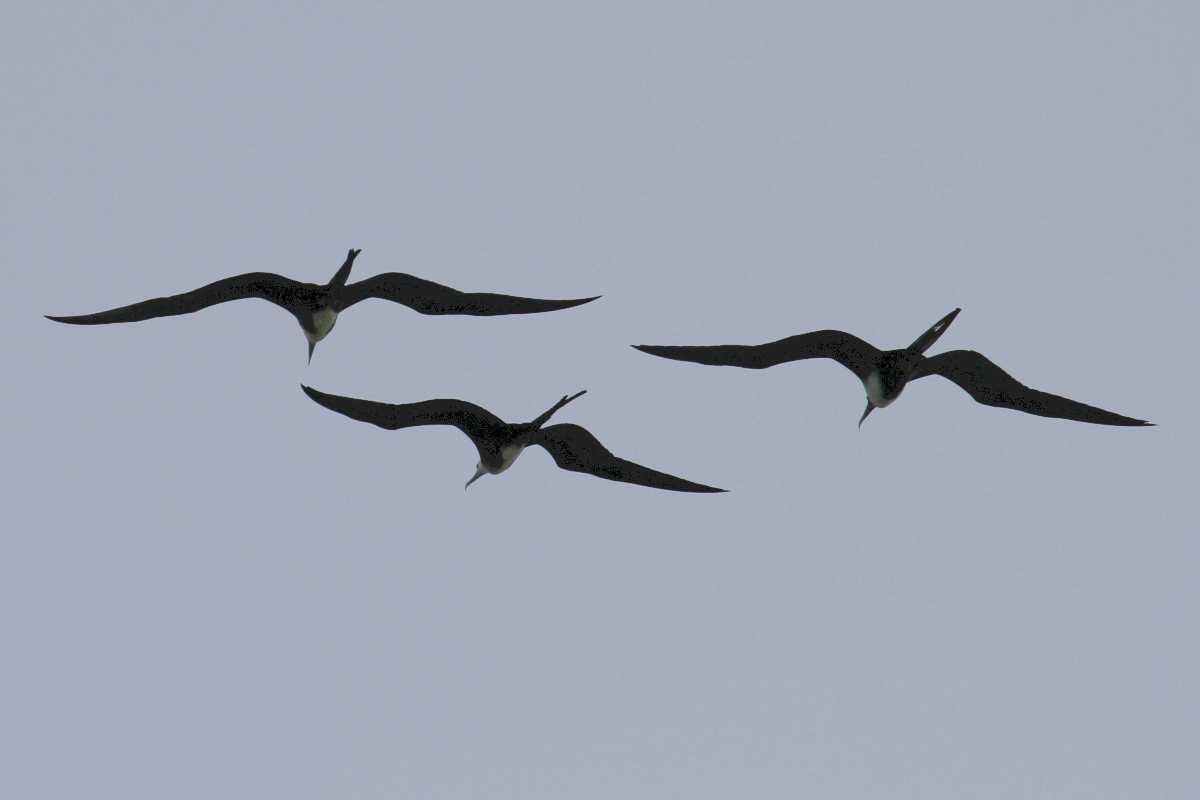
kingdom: Animalia
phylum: Chordata
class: Aves
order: Suliformes
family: Fregatidae
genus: Fregata
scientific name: Fregata magnificens
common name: Magnificent frigatebird
